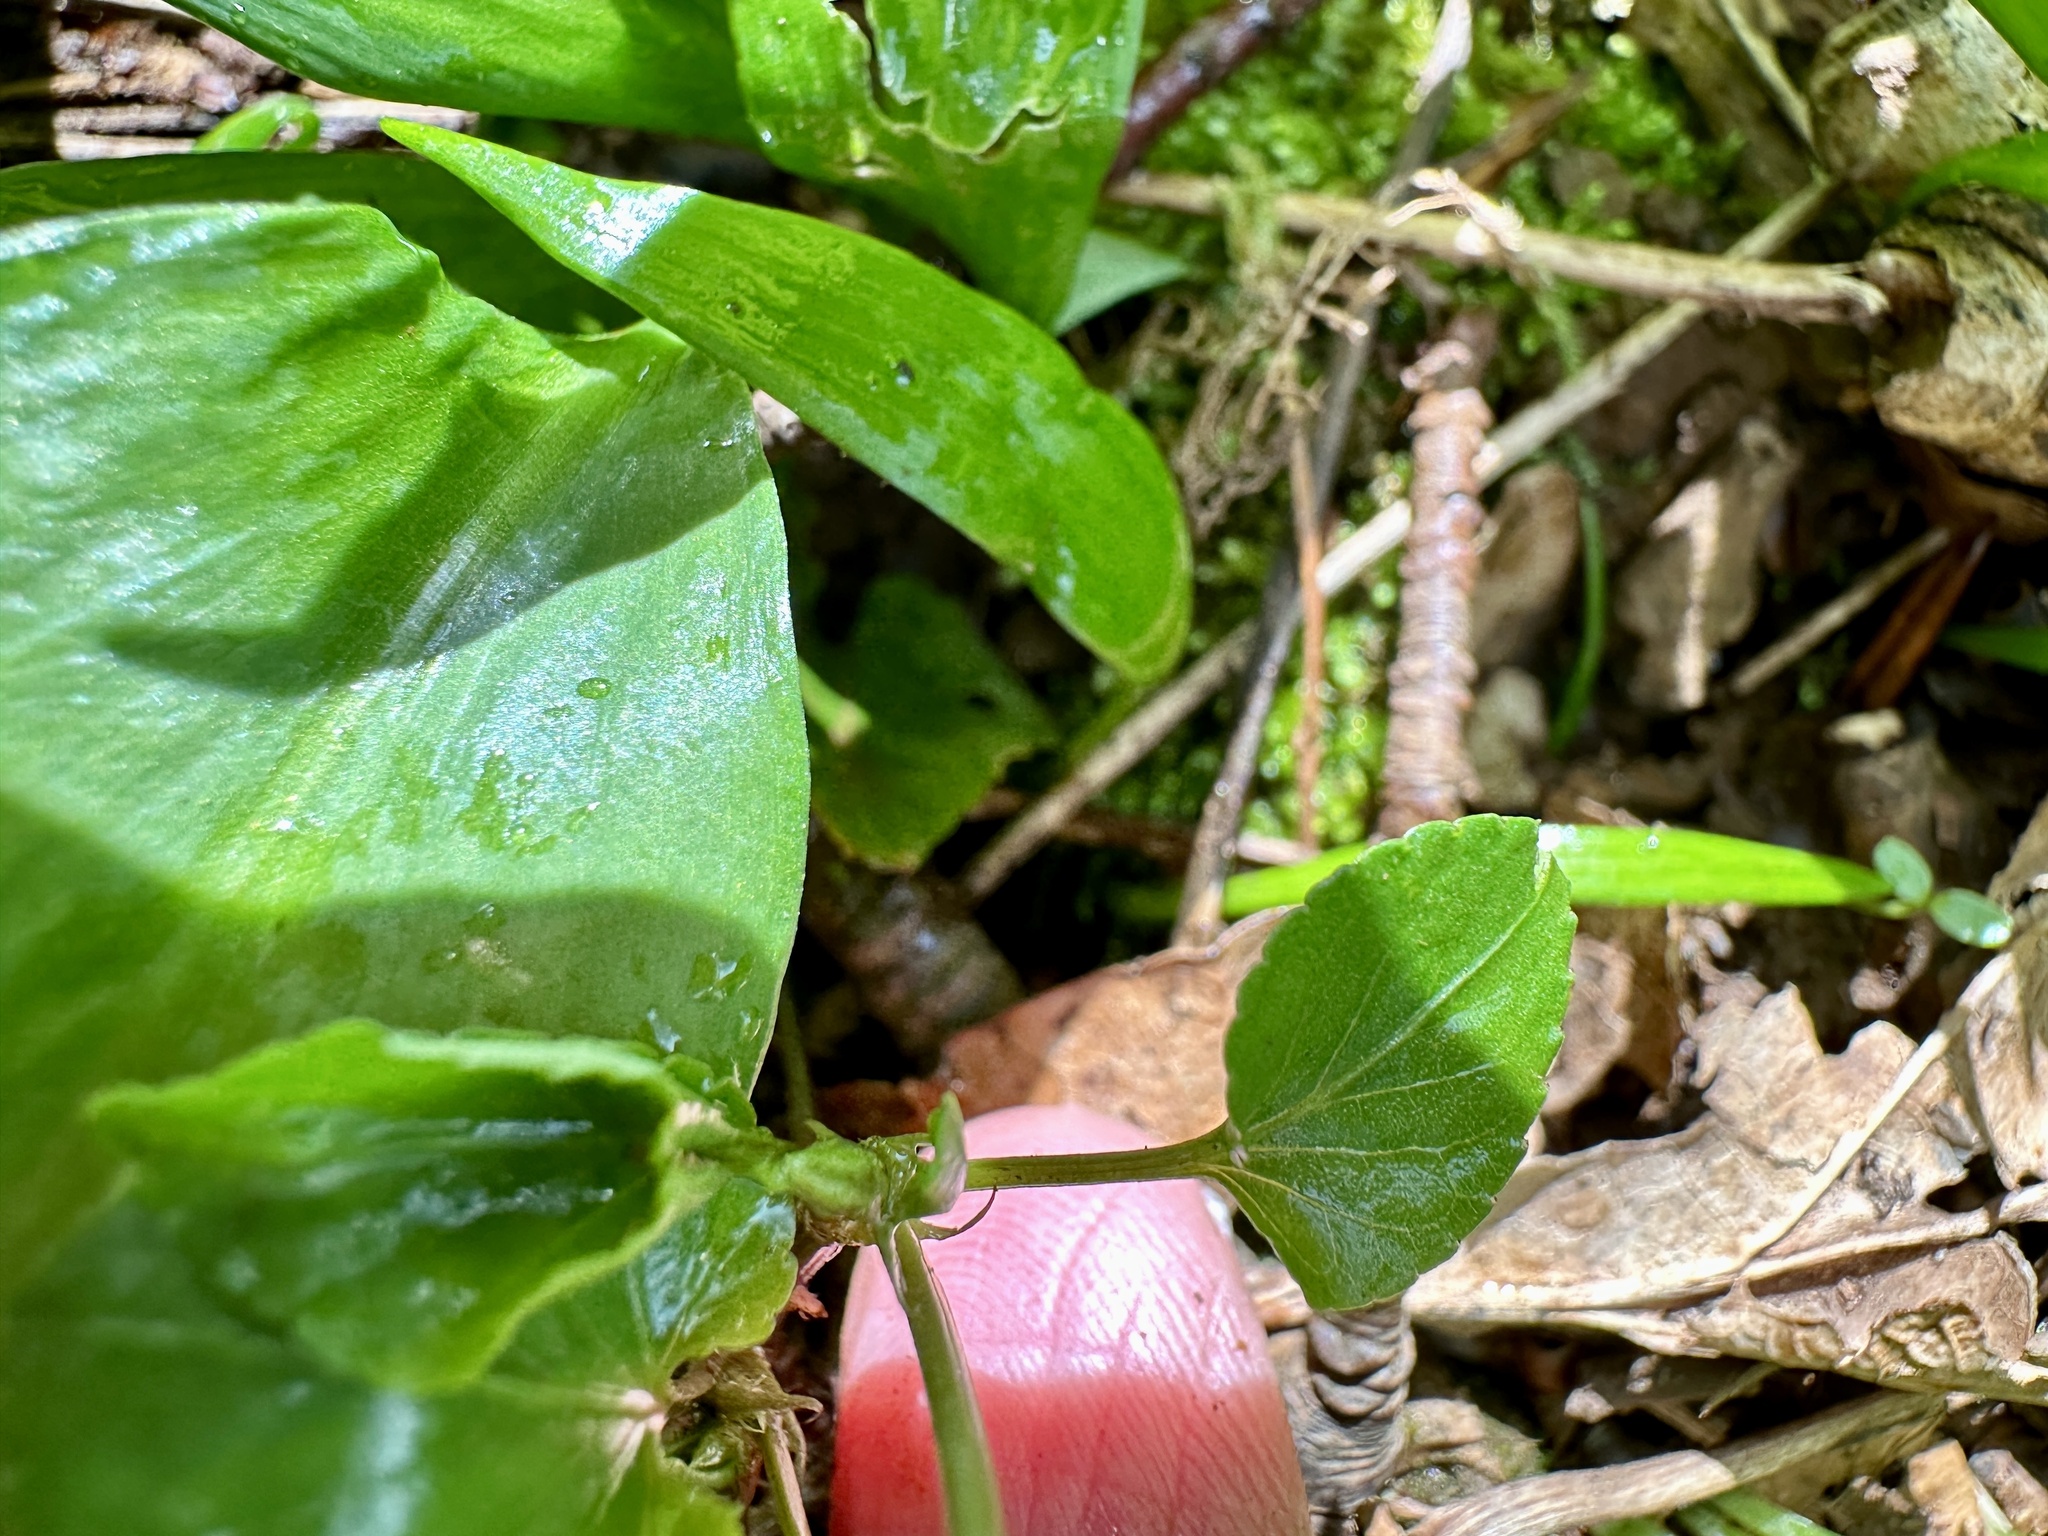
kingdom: Plantae
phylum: Tracheophyta
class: Magnoliopsida
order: Malpighiales
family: Violaceae
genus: Viola
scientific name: Viola reichenbachiana
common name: Early dog-violet
